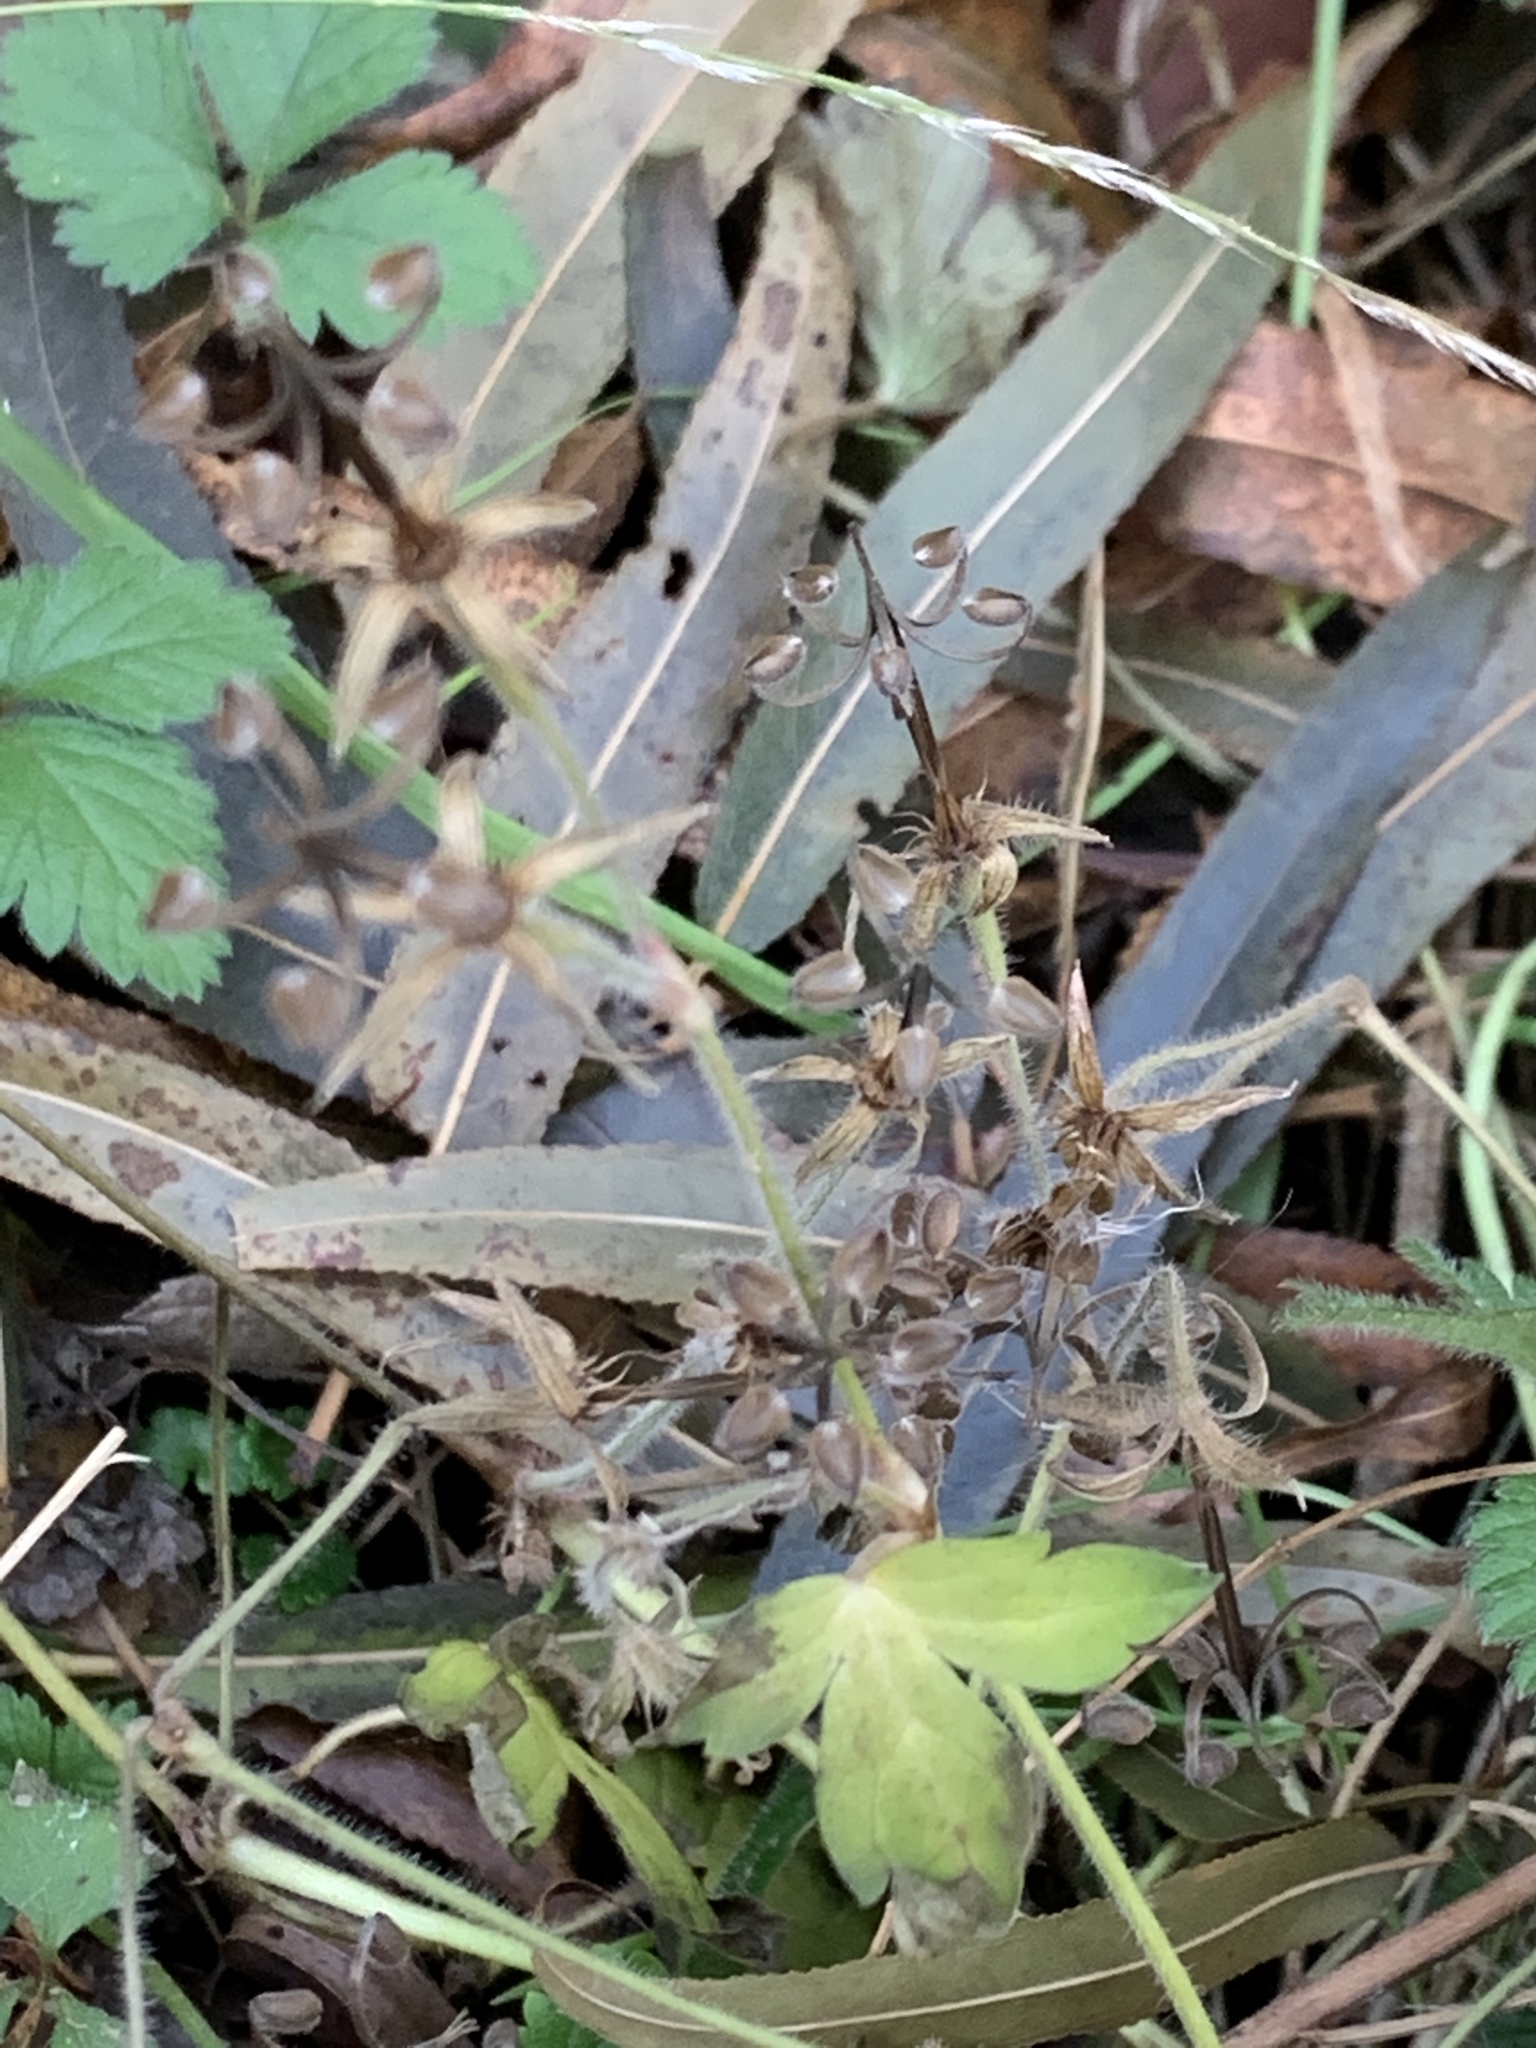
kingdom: Plantae
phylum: Tracheophyta
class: Magnoliopsida
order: Geraniales
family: Geraniaceae
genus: Geranium
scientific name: Geranium thunbergii
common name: Dewdrop crane's-bill
